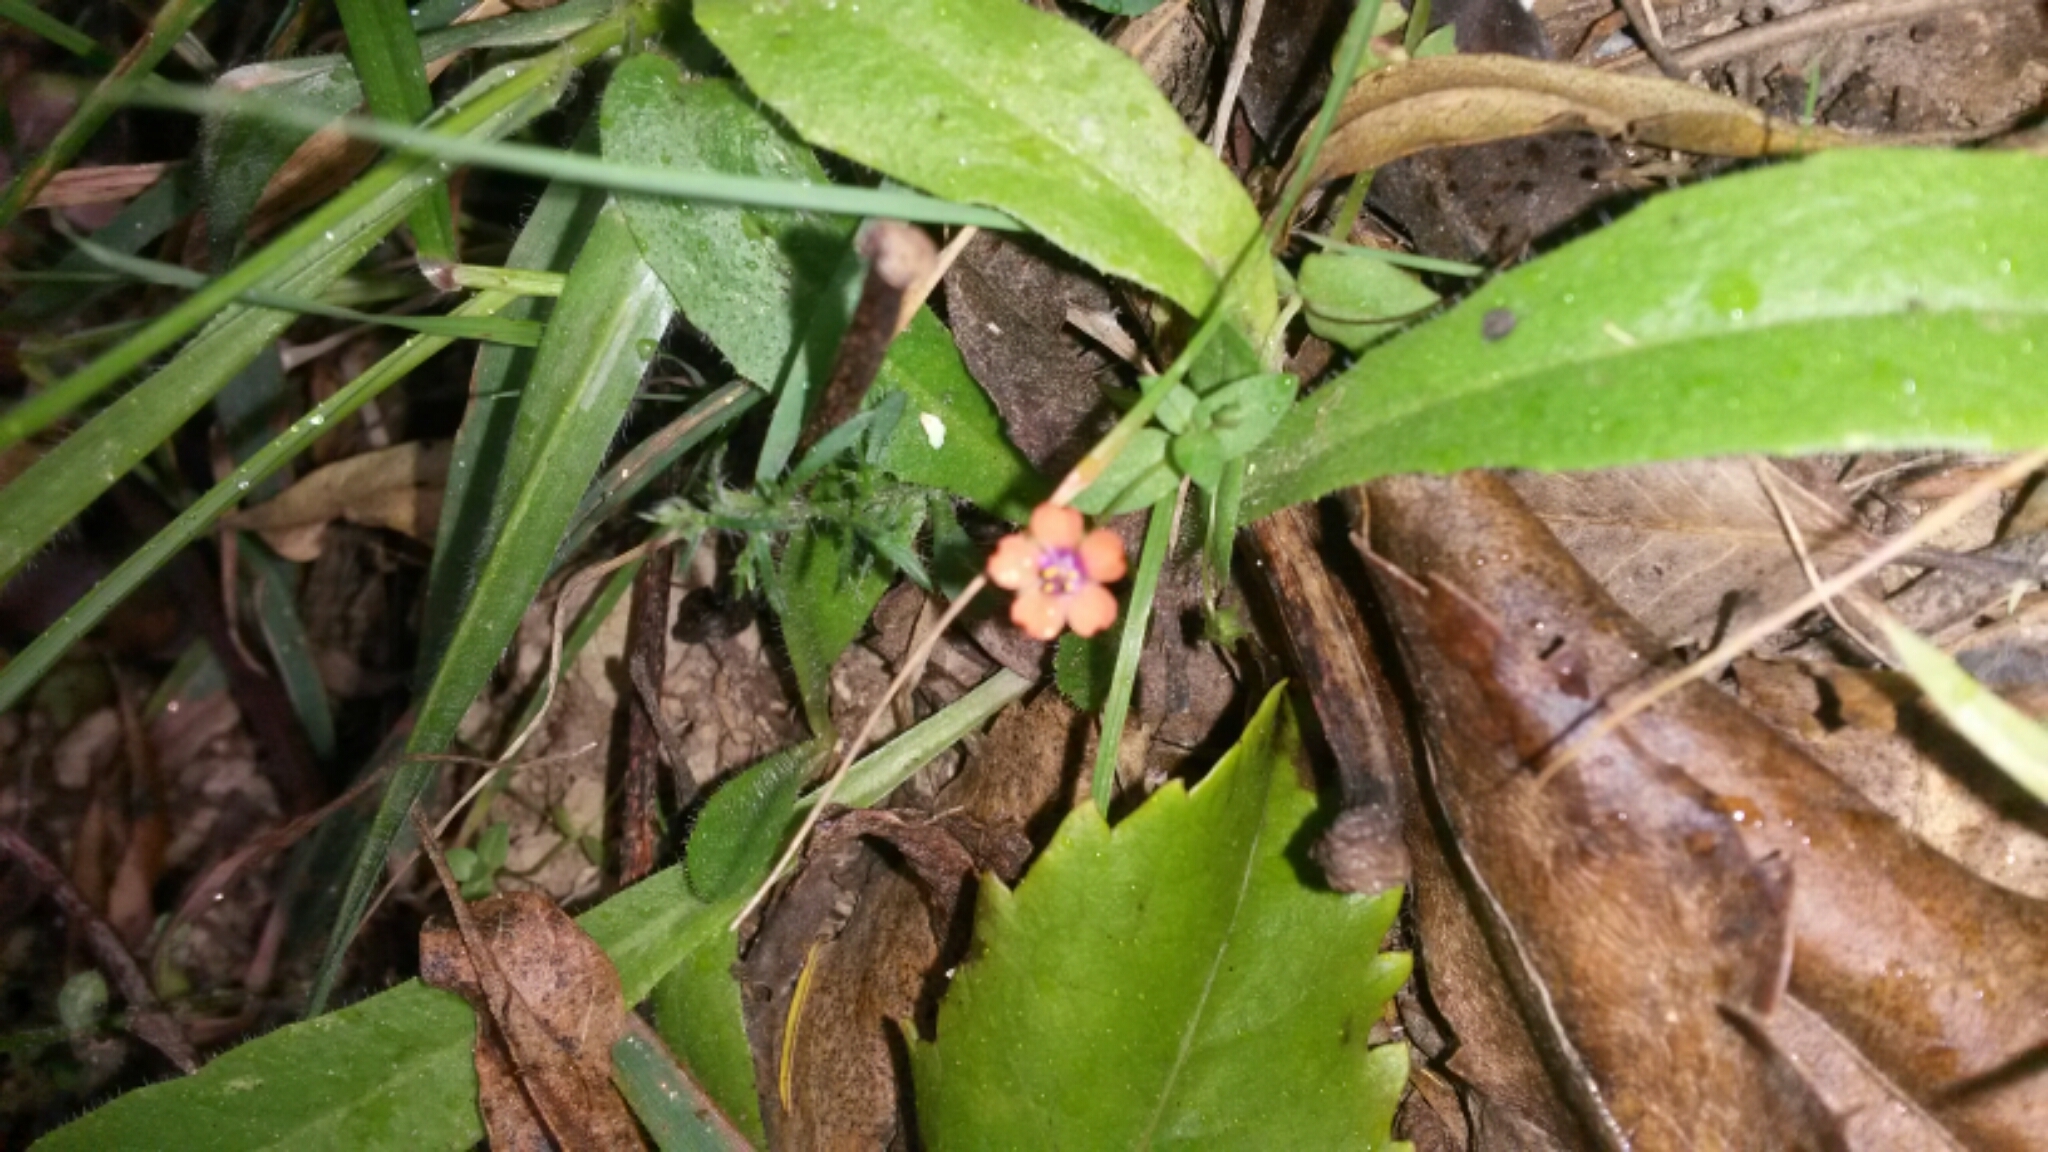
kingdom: Plantae
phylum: Tracheophyta
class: Magnoliopsida
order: Ericales
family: Primulaceae
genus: Lysimachia
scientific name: Lysimachia arvensis
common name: Scarlet pimpernel
